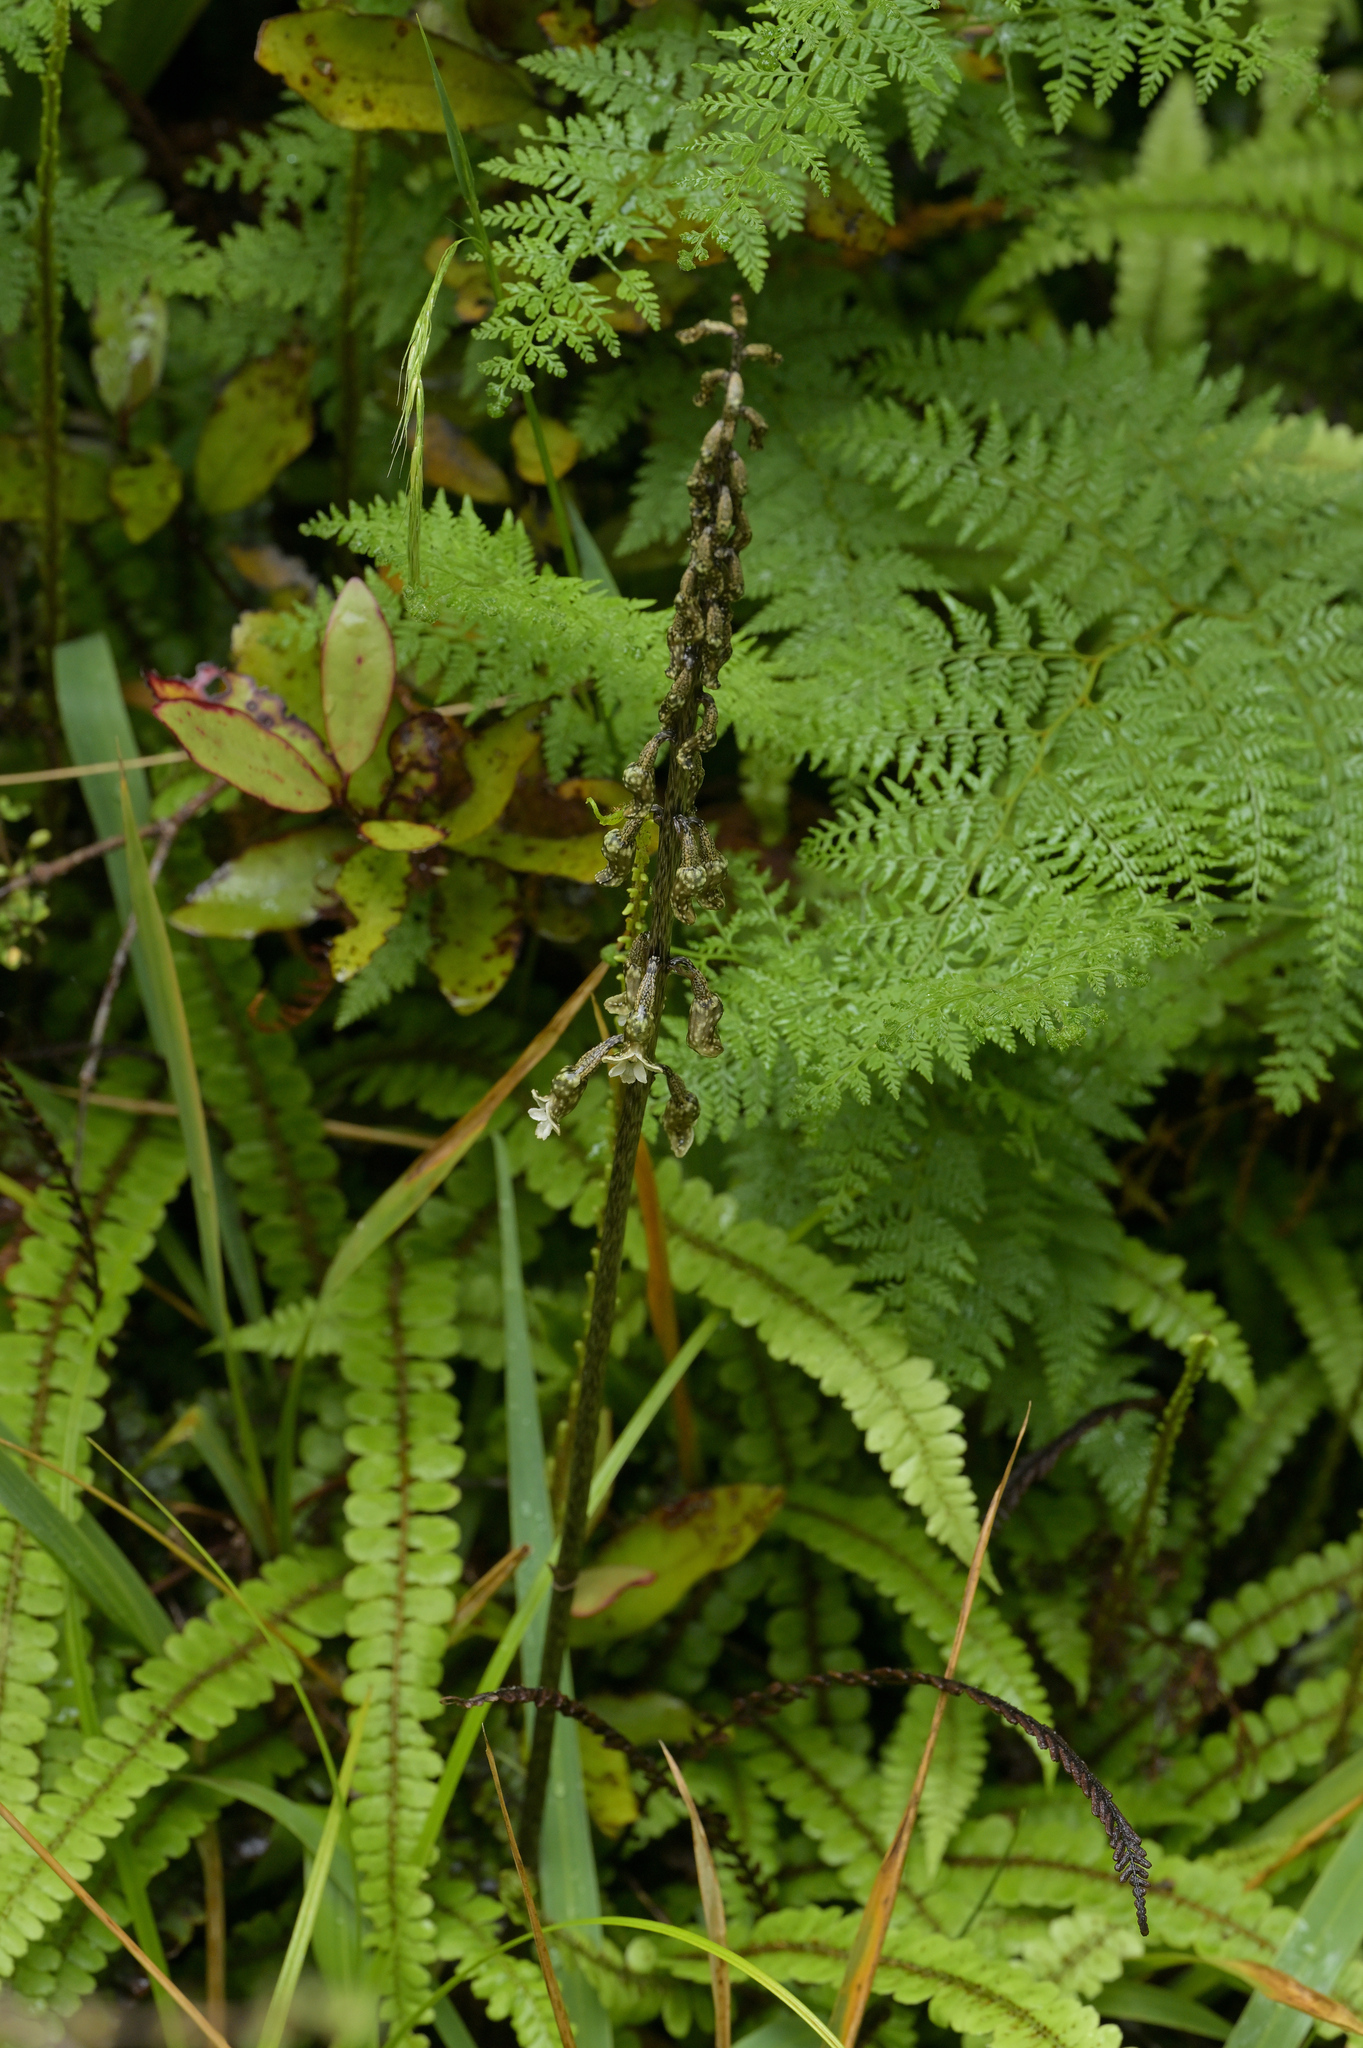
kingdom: Plantae
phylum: Tracheophyta
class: Liliopsida
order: Asparagales
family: Orchidaceae
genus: Gastrodia
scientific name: Gastrodia cunninghamii
